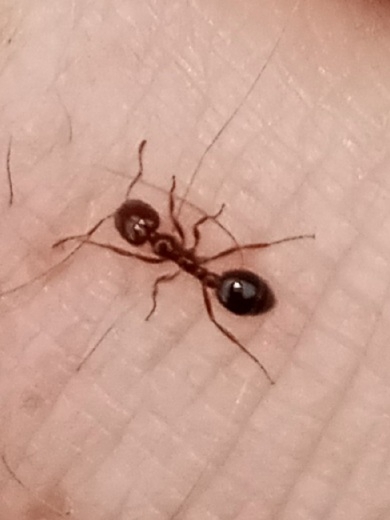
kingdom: Animalia
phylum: Arthropoda
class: Insecta
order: Hymenoptera
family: Formicidae
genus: Solenopsis
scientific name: Solenopsis invicta
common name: Red imported fire ant
